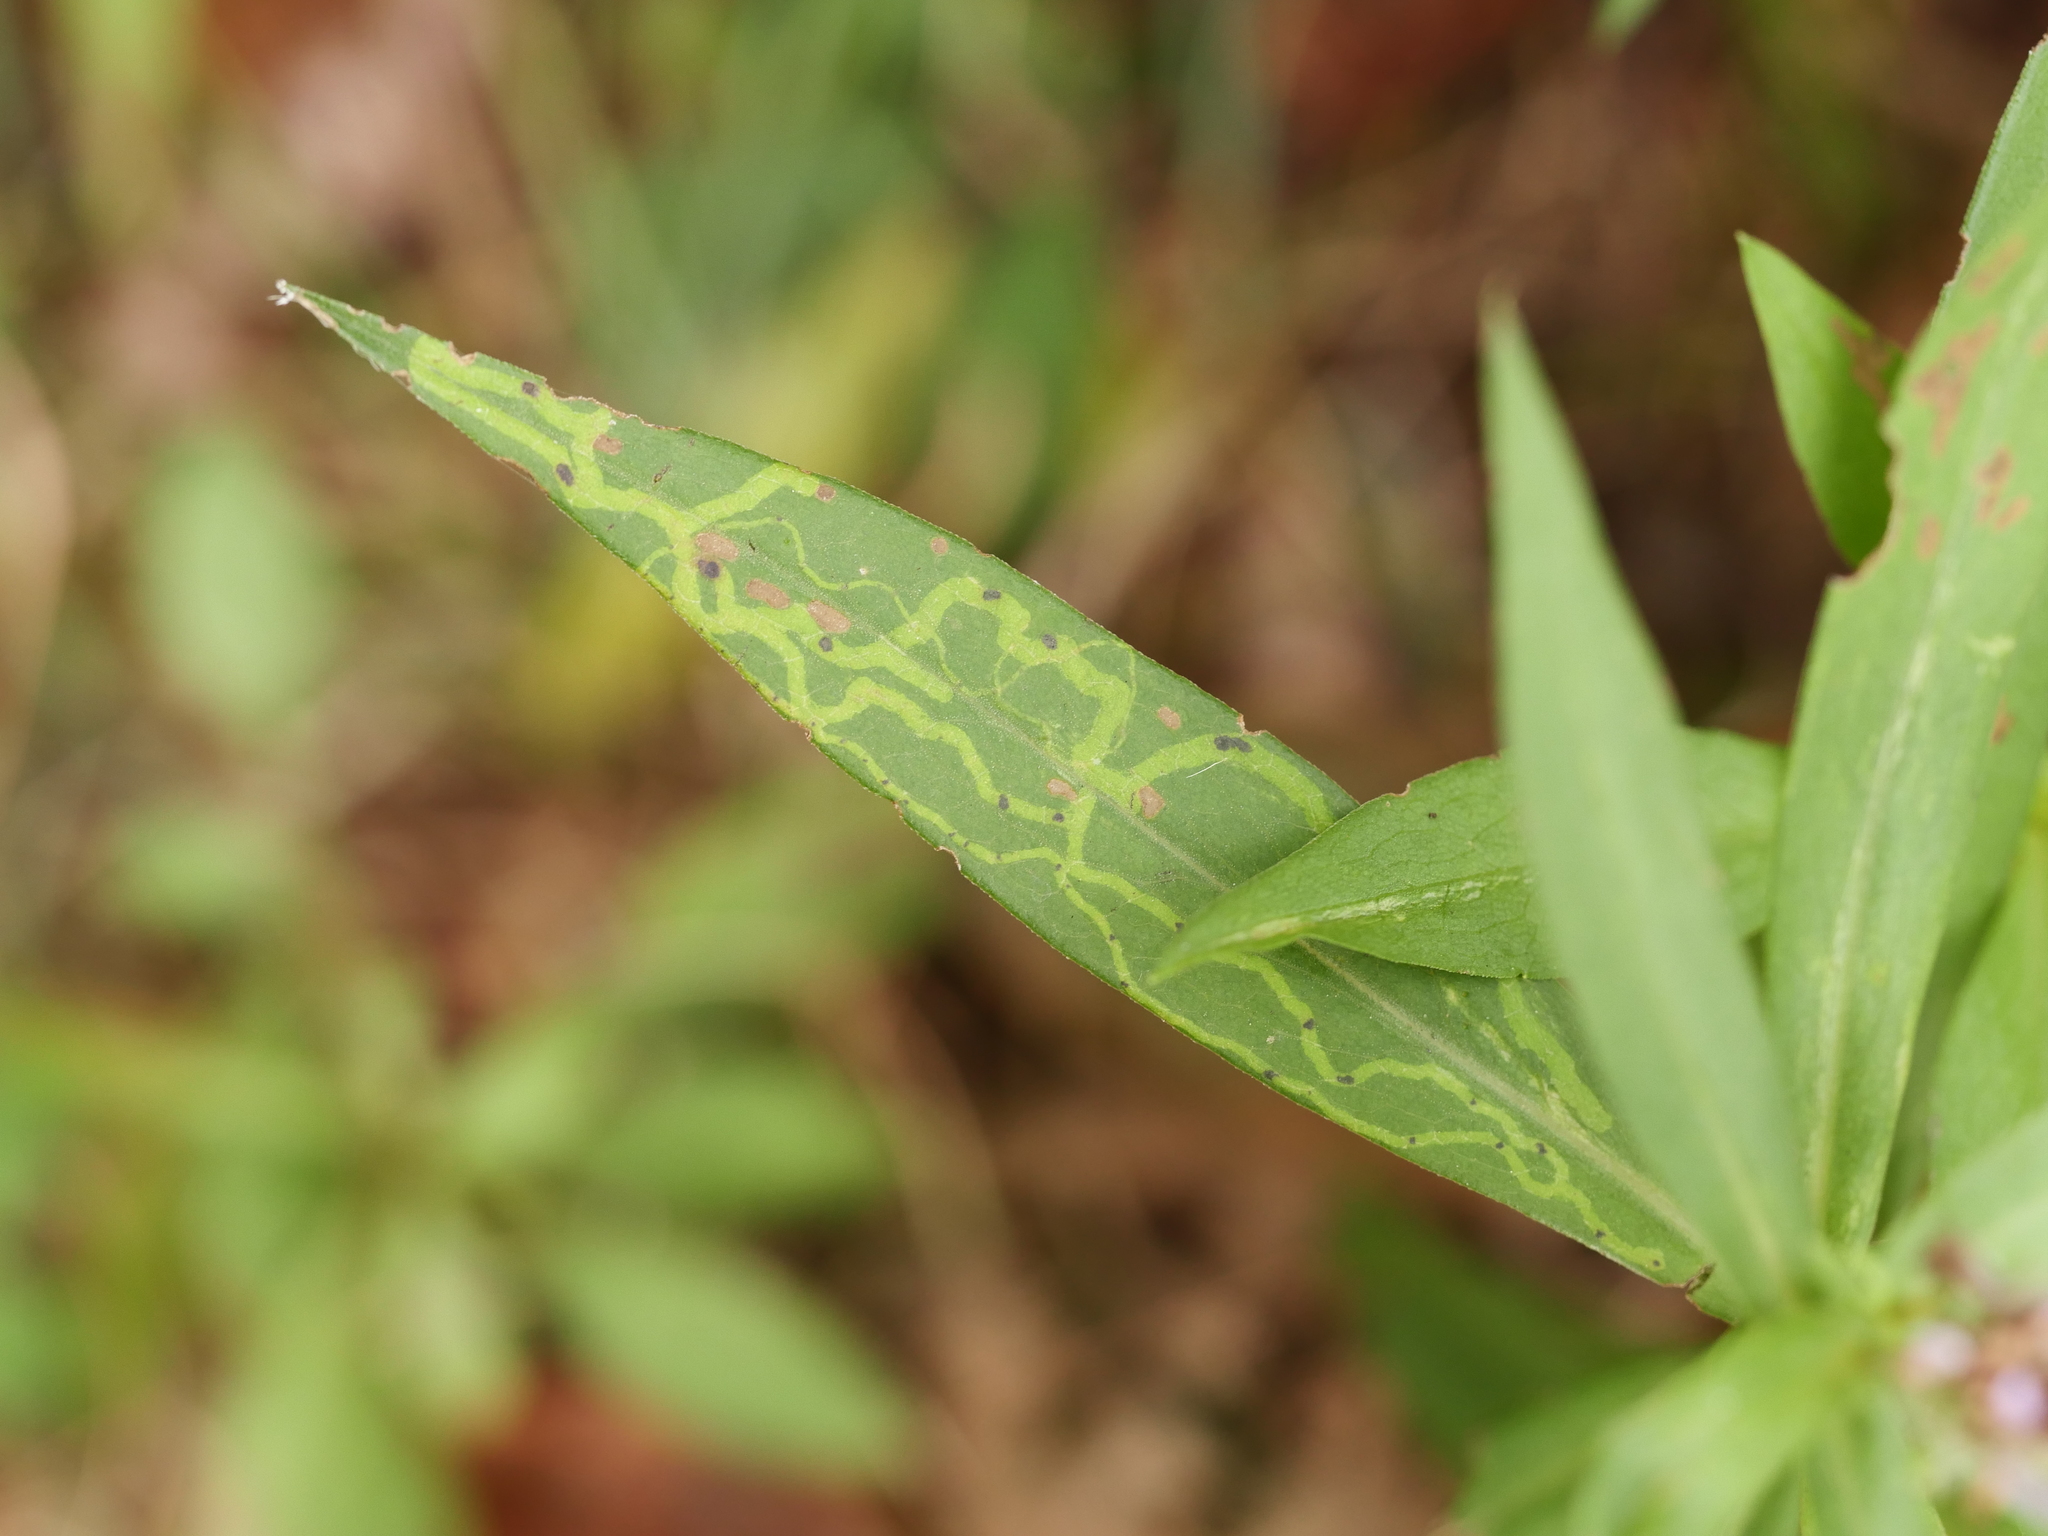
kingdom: Animalia
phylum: Arthropoda
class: Insecta
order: Diptera
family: Agromyzidae
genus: Ophiomyia
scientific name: Ophiomyia parda
